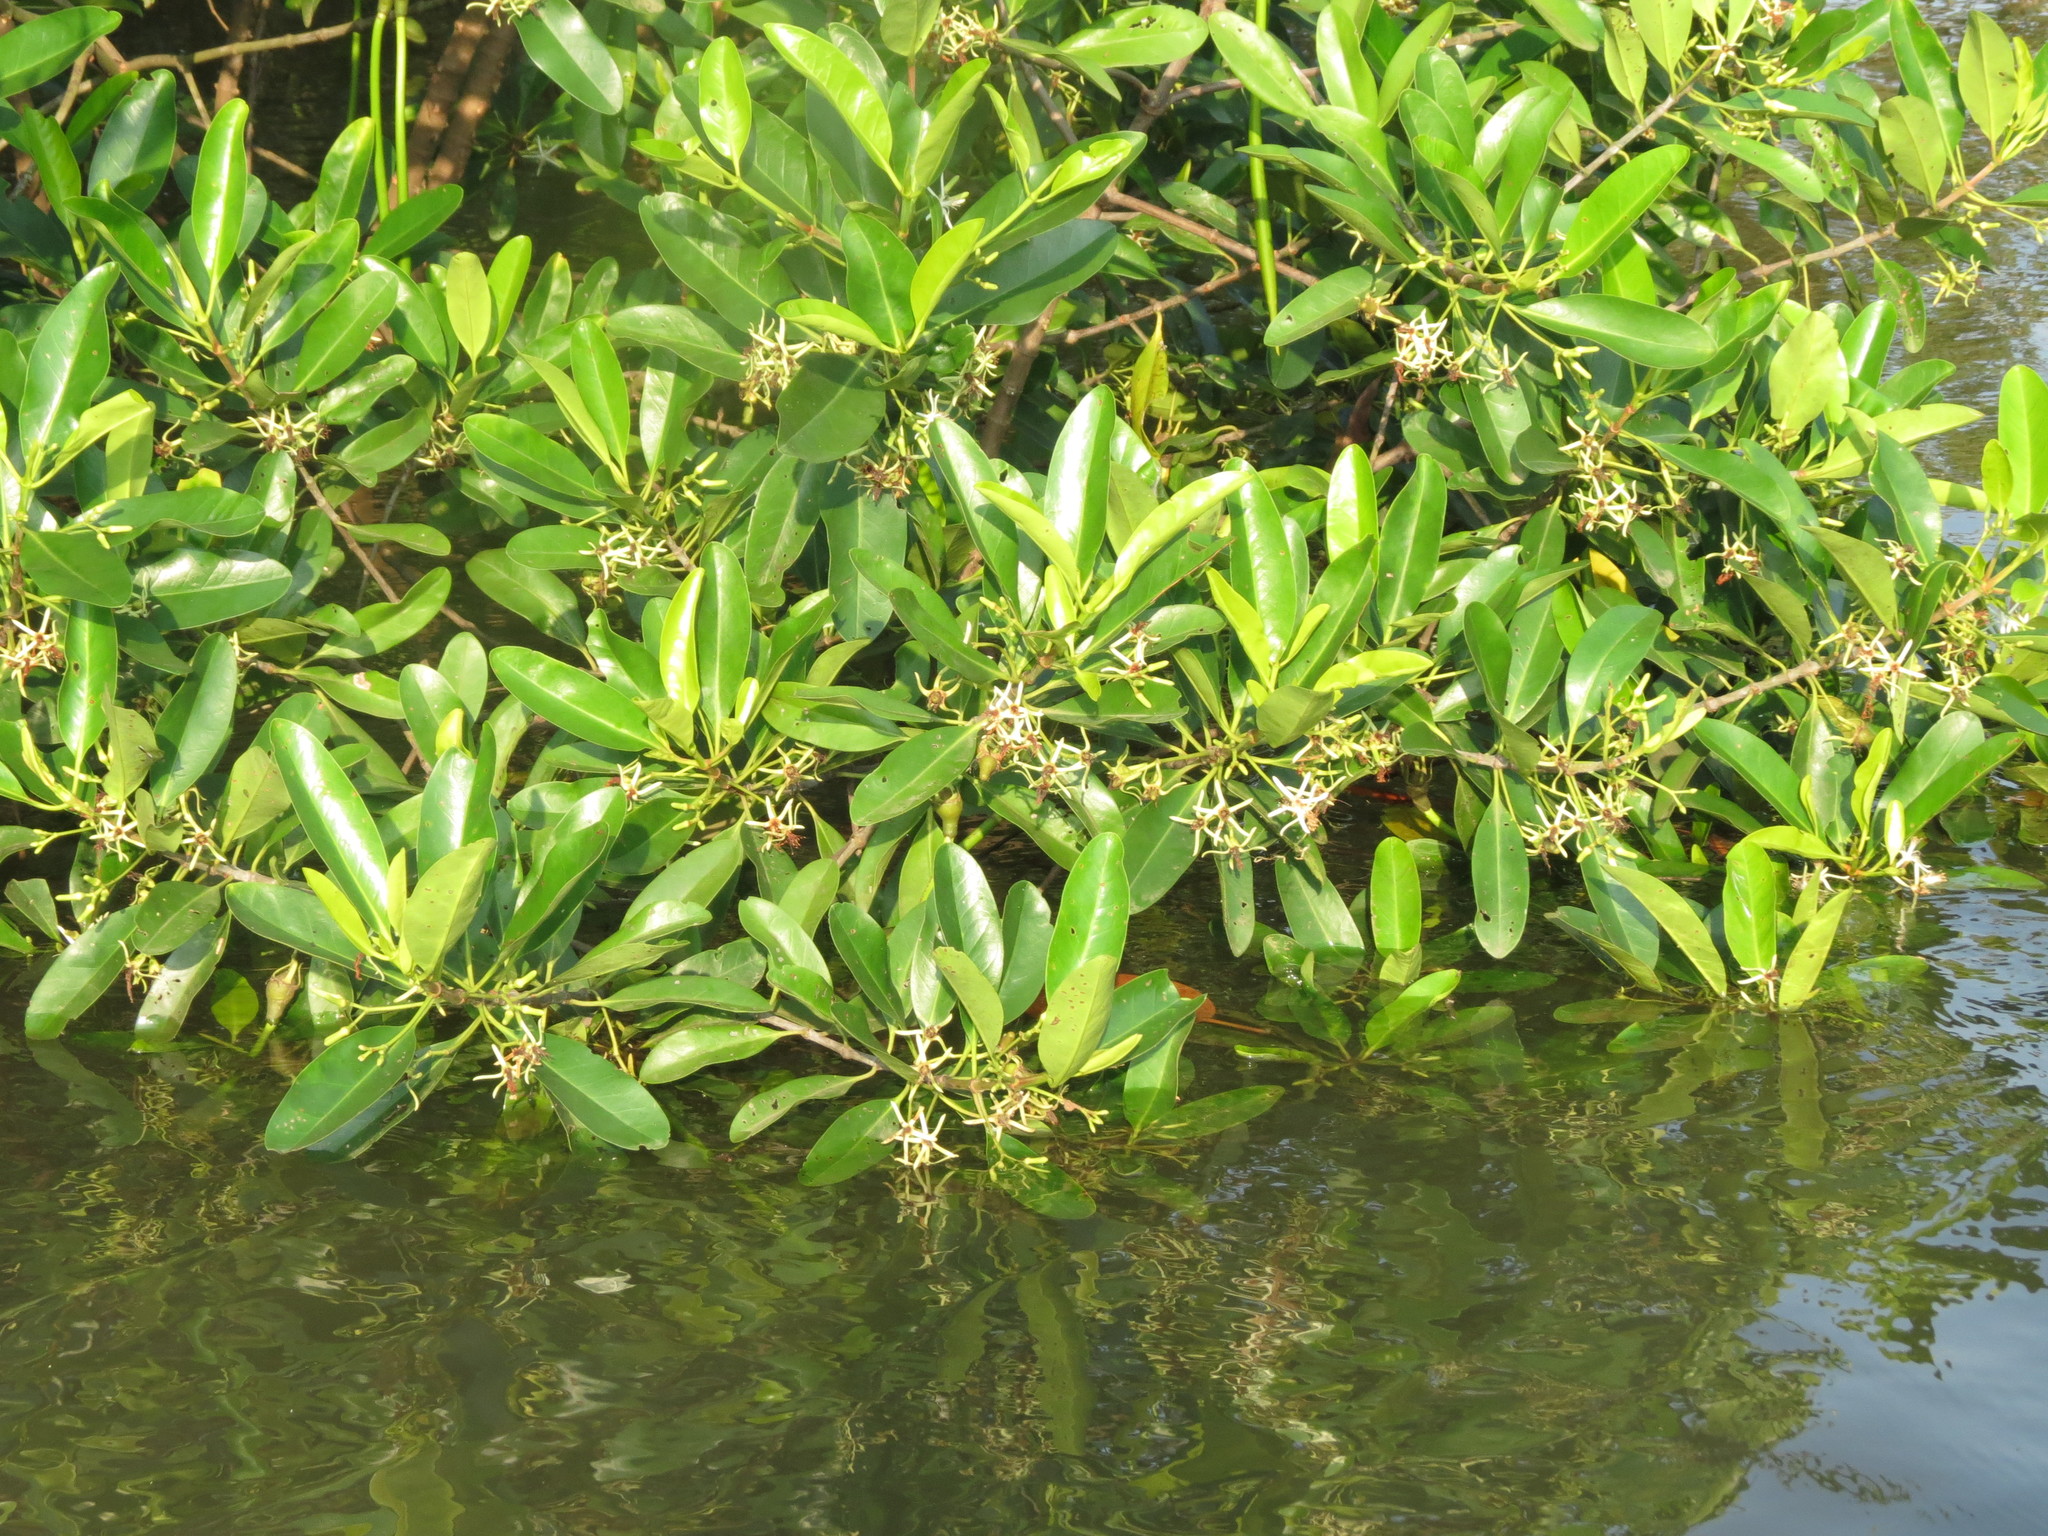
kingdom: Plantae
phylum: Tracheophyta
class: Magnoliopsida
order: Malpighiales
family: Rhizophoraceae
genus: Kandelia
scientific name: Kandelia candel
